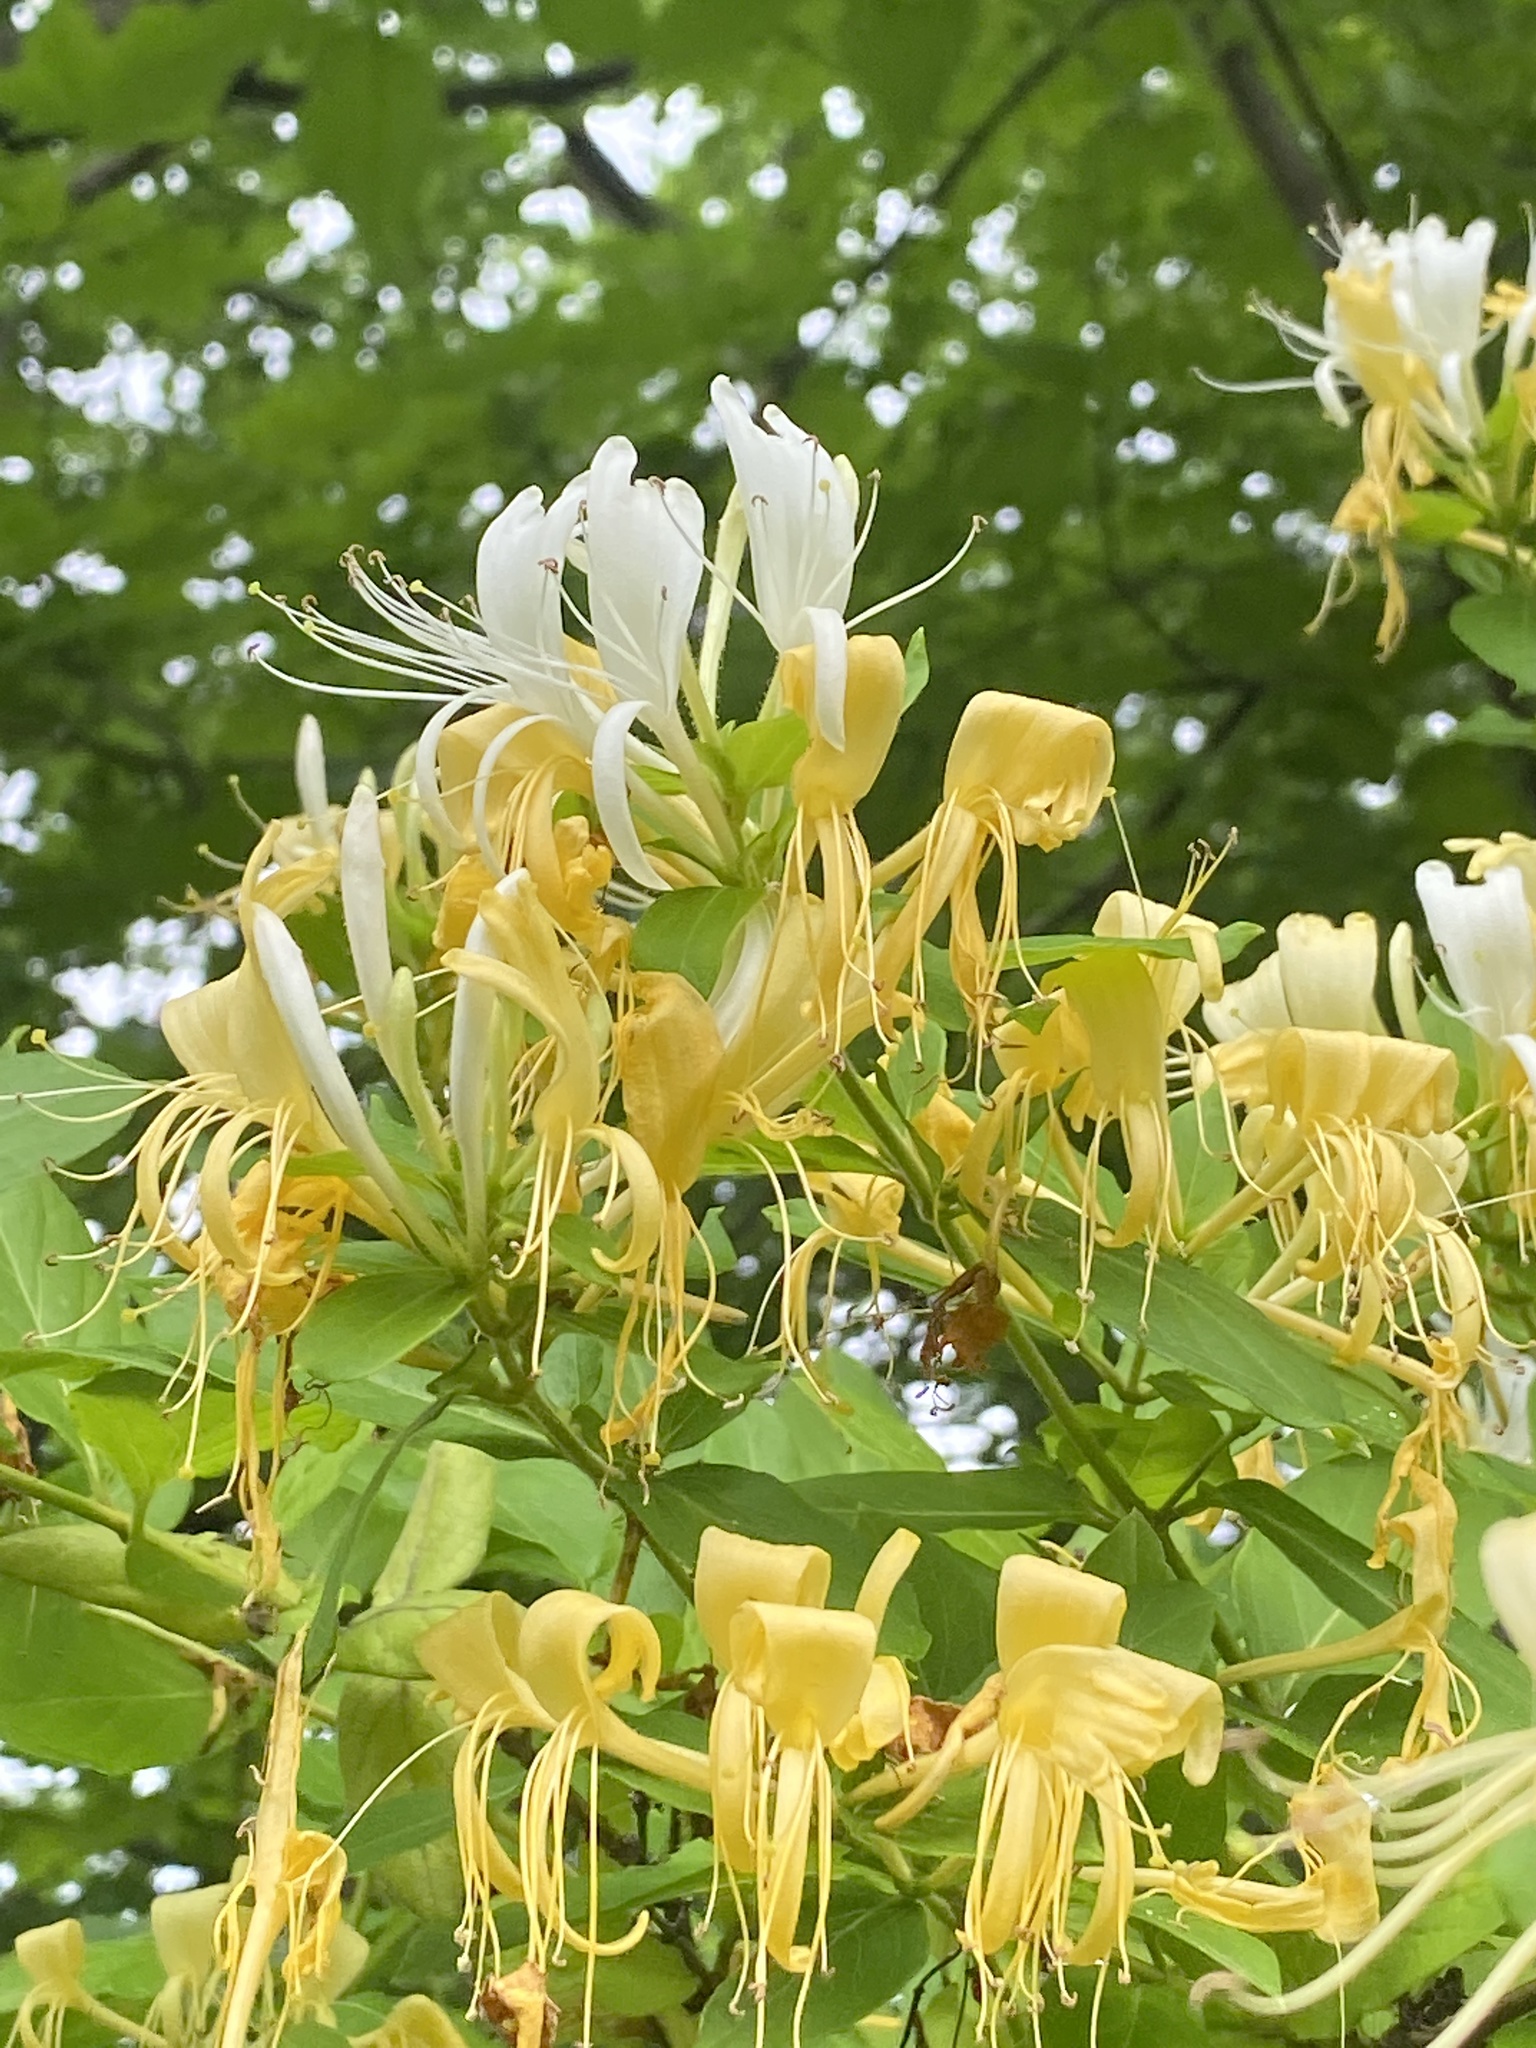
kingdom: Plantae
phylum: Tracheophyta
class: Magnoliopsida
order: Dipsacales
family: Caprifoliaceae
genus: Lonicera
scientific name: Lonicera japonica
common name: Japanese honeysuckle
